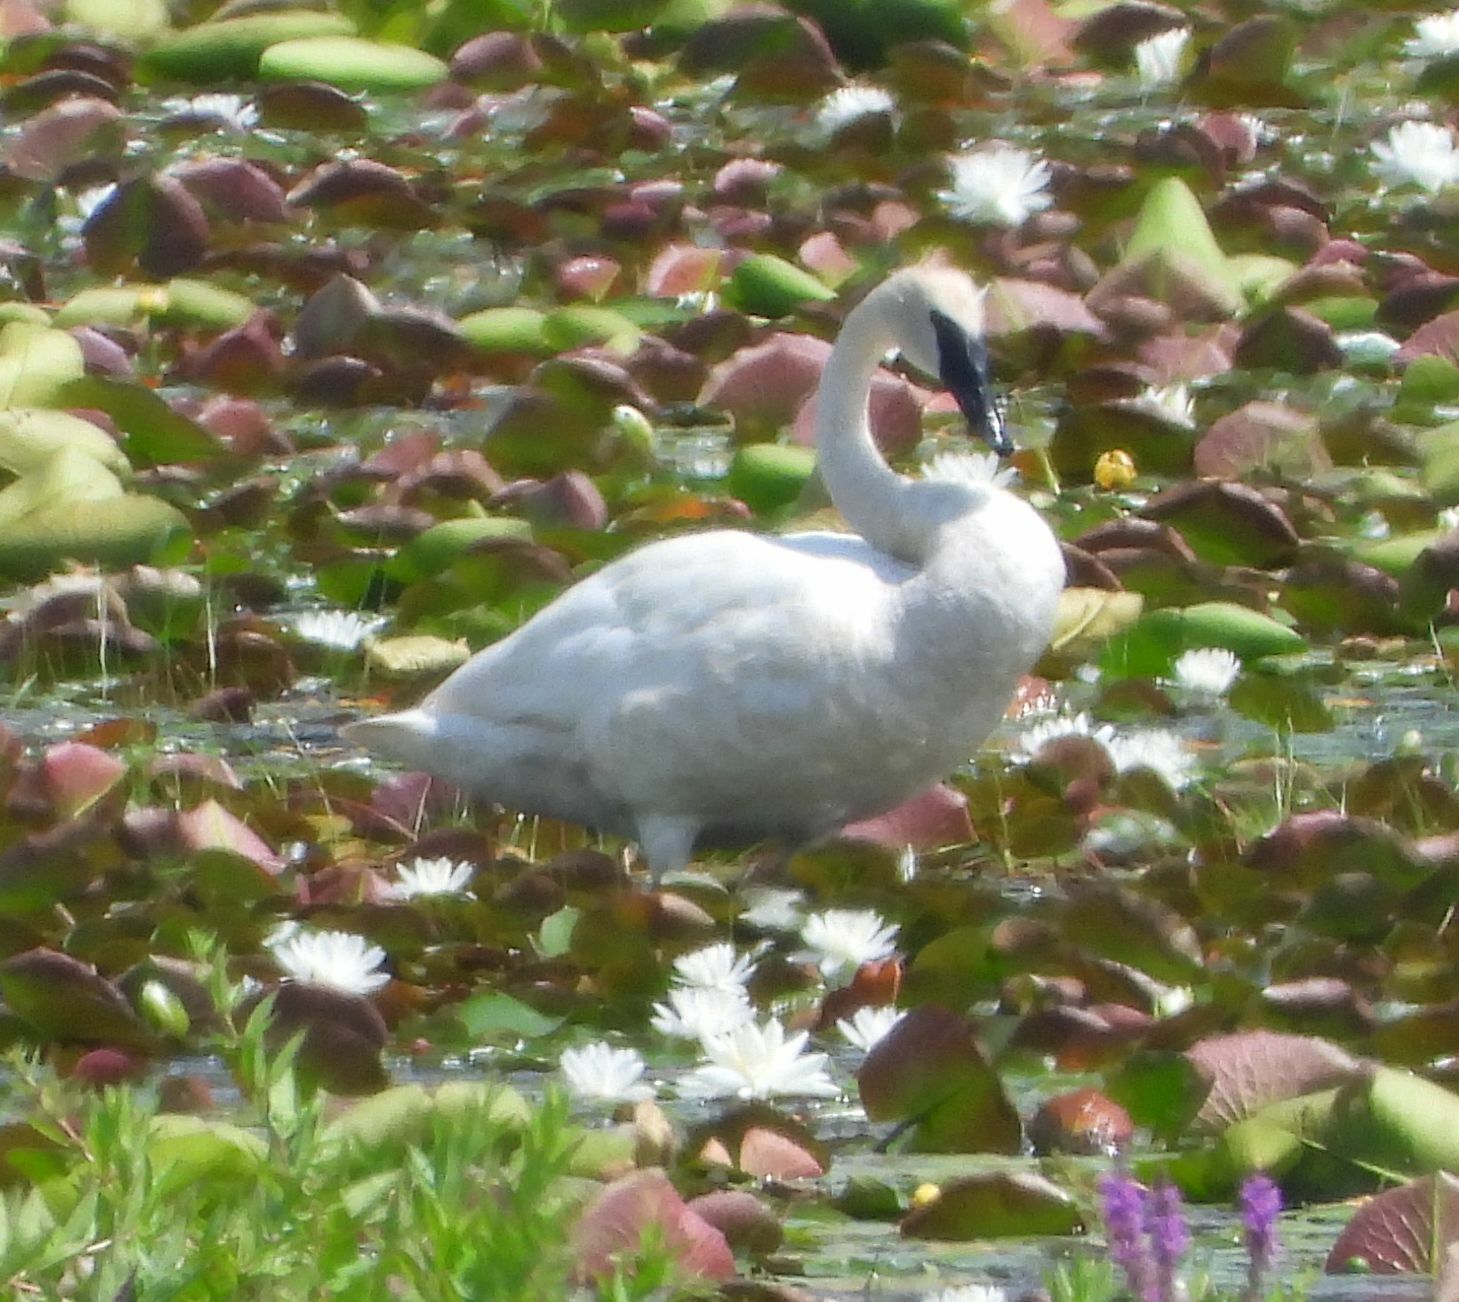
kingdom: Animalia
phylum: Chordata
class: Aves
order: Anseriformes
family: Anatidae
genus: Cygnus
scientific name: Cygnus buccinator
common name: Trumpeter swan
